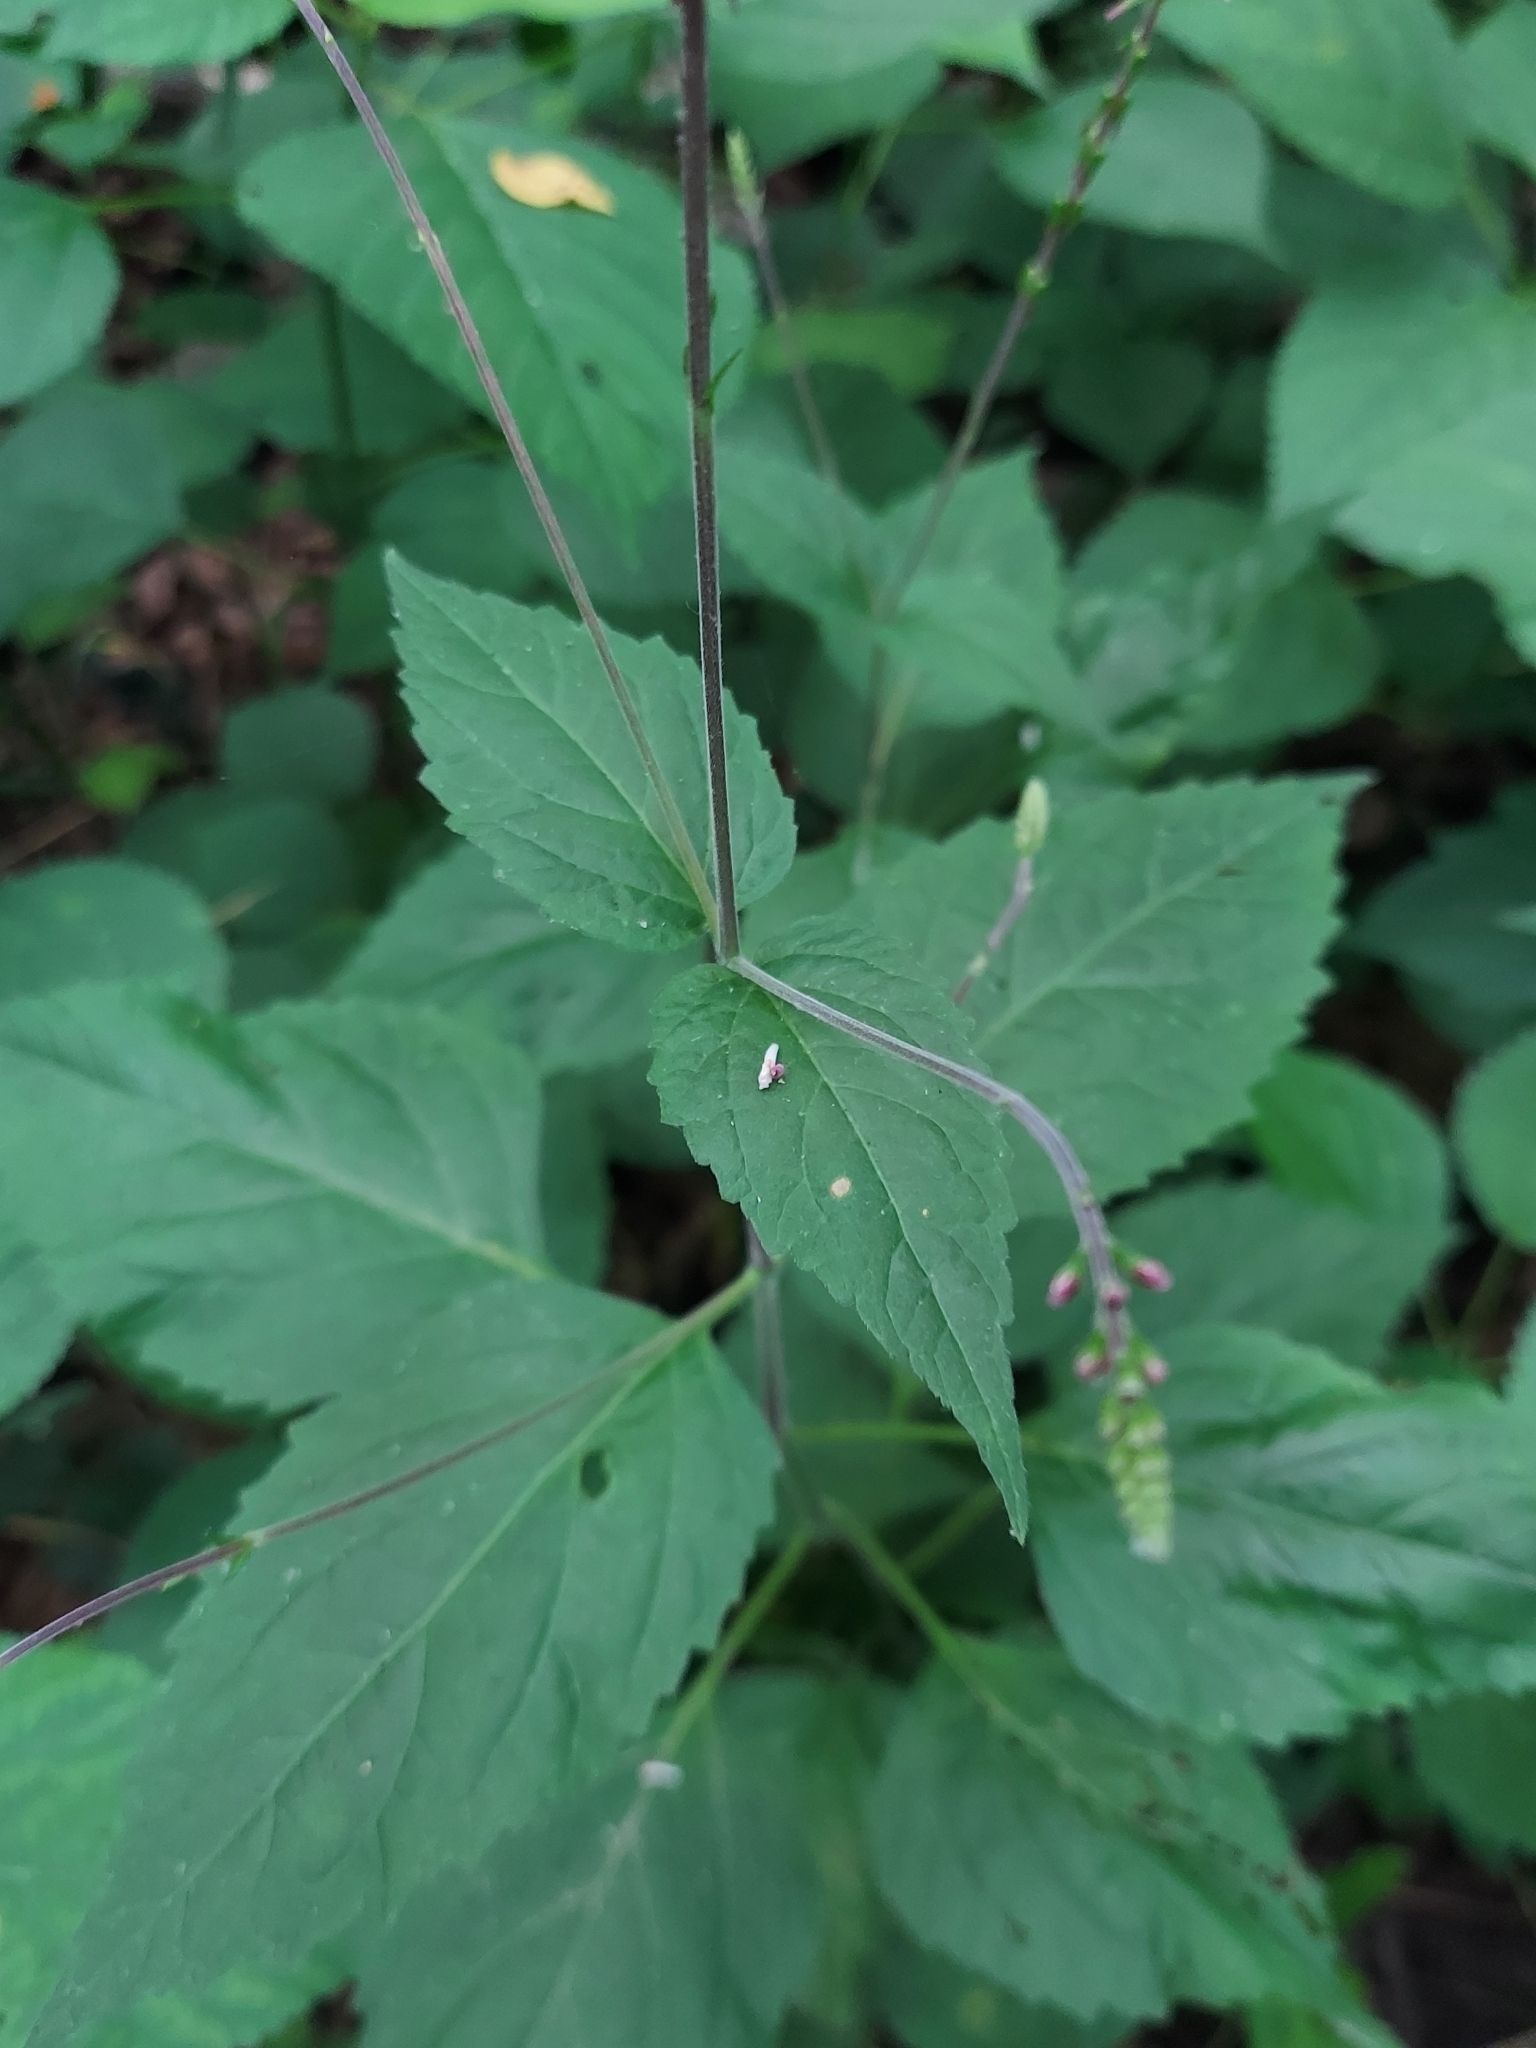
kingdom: Plantae
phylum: Tracheophyta
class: Magnoliopsida
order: Lamiales
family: Phrymaceae
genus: Phryma
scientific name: Phryma leptostachya
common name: American lopseed
